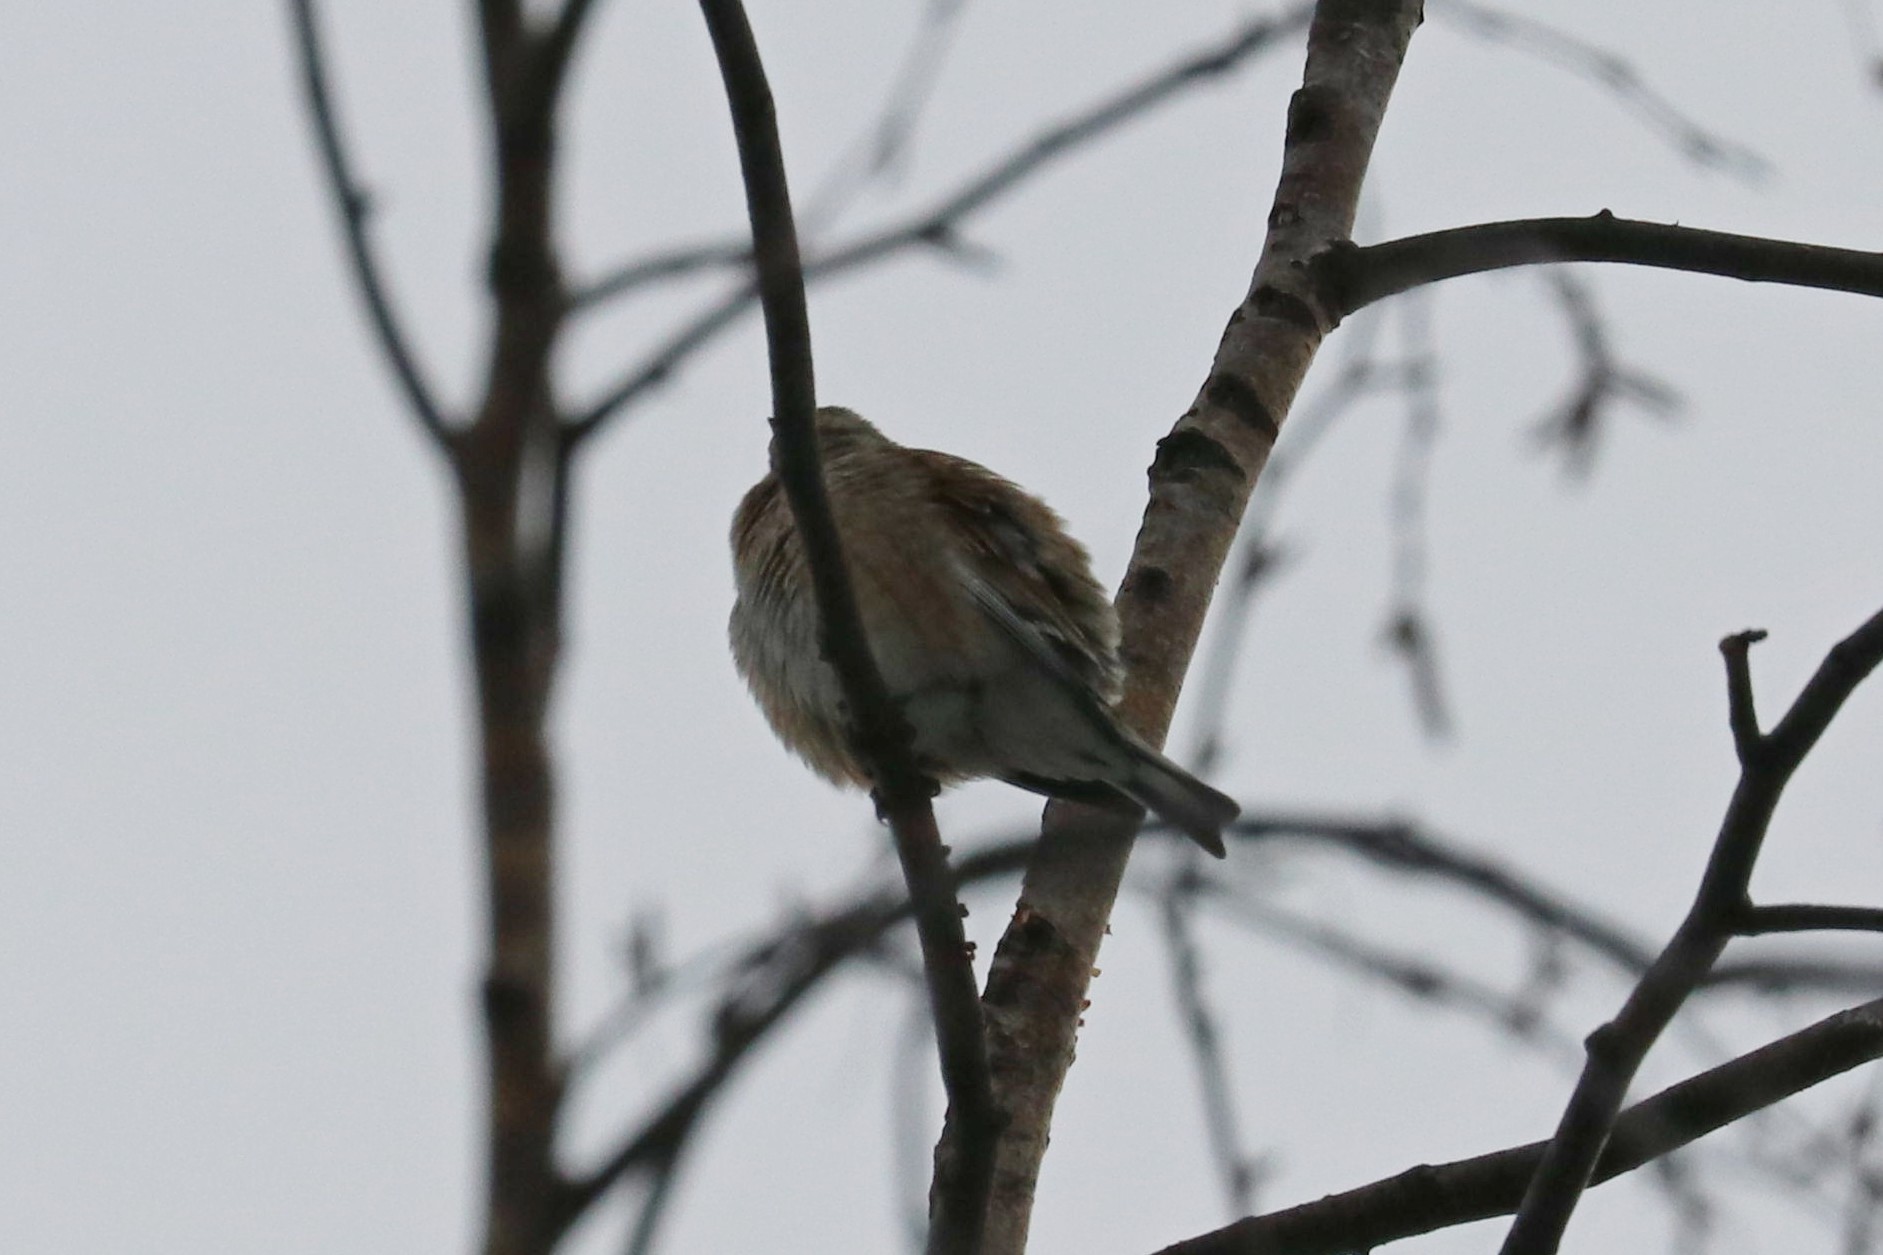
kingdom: Animalia
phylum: Chordata
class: Aves
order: Passeriformes
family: Fringillidae
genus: Linaria
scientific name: Linaria cannabina
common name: Common linnet
